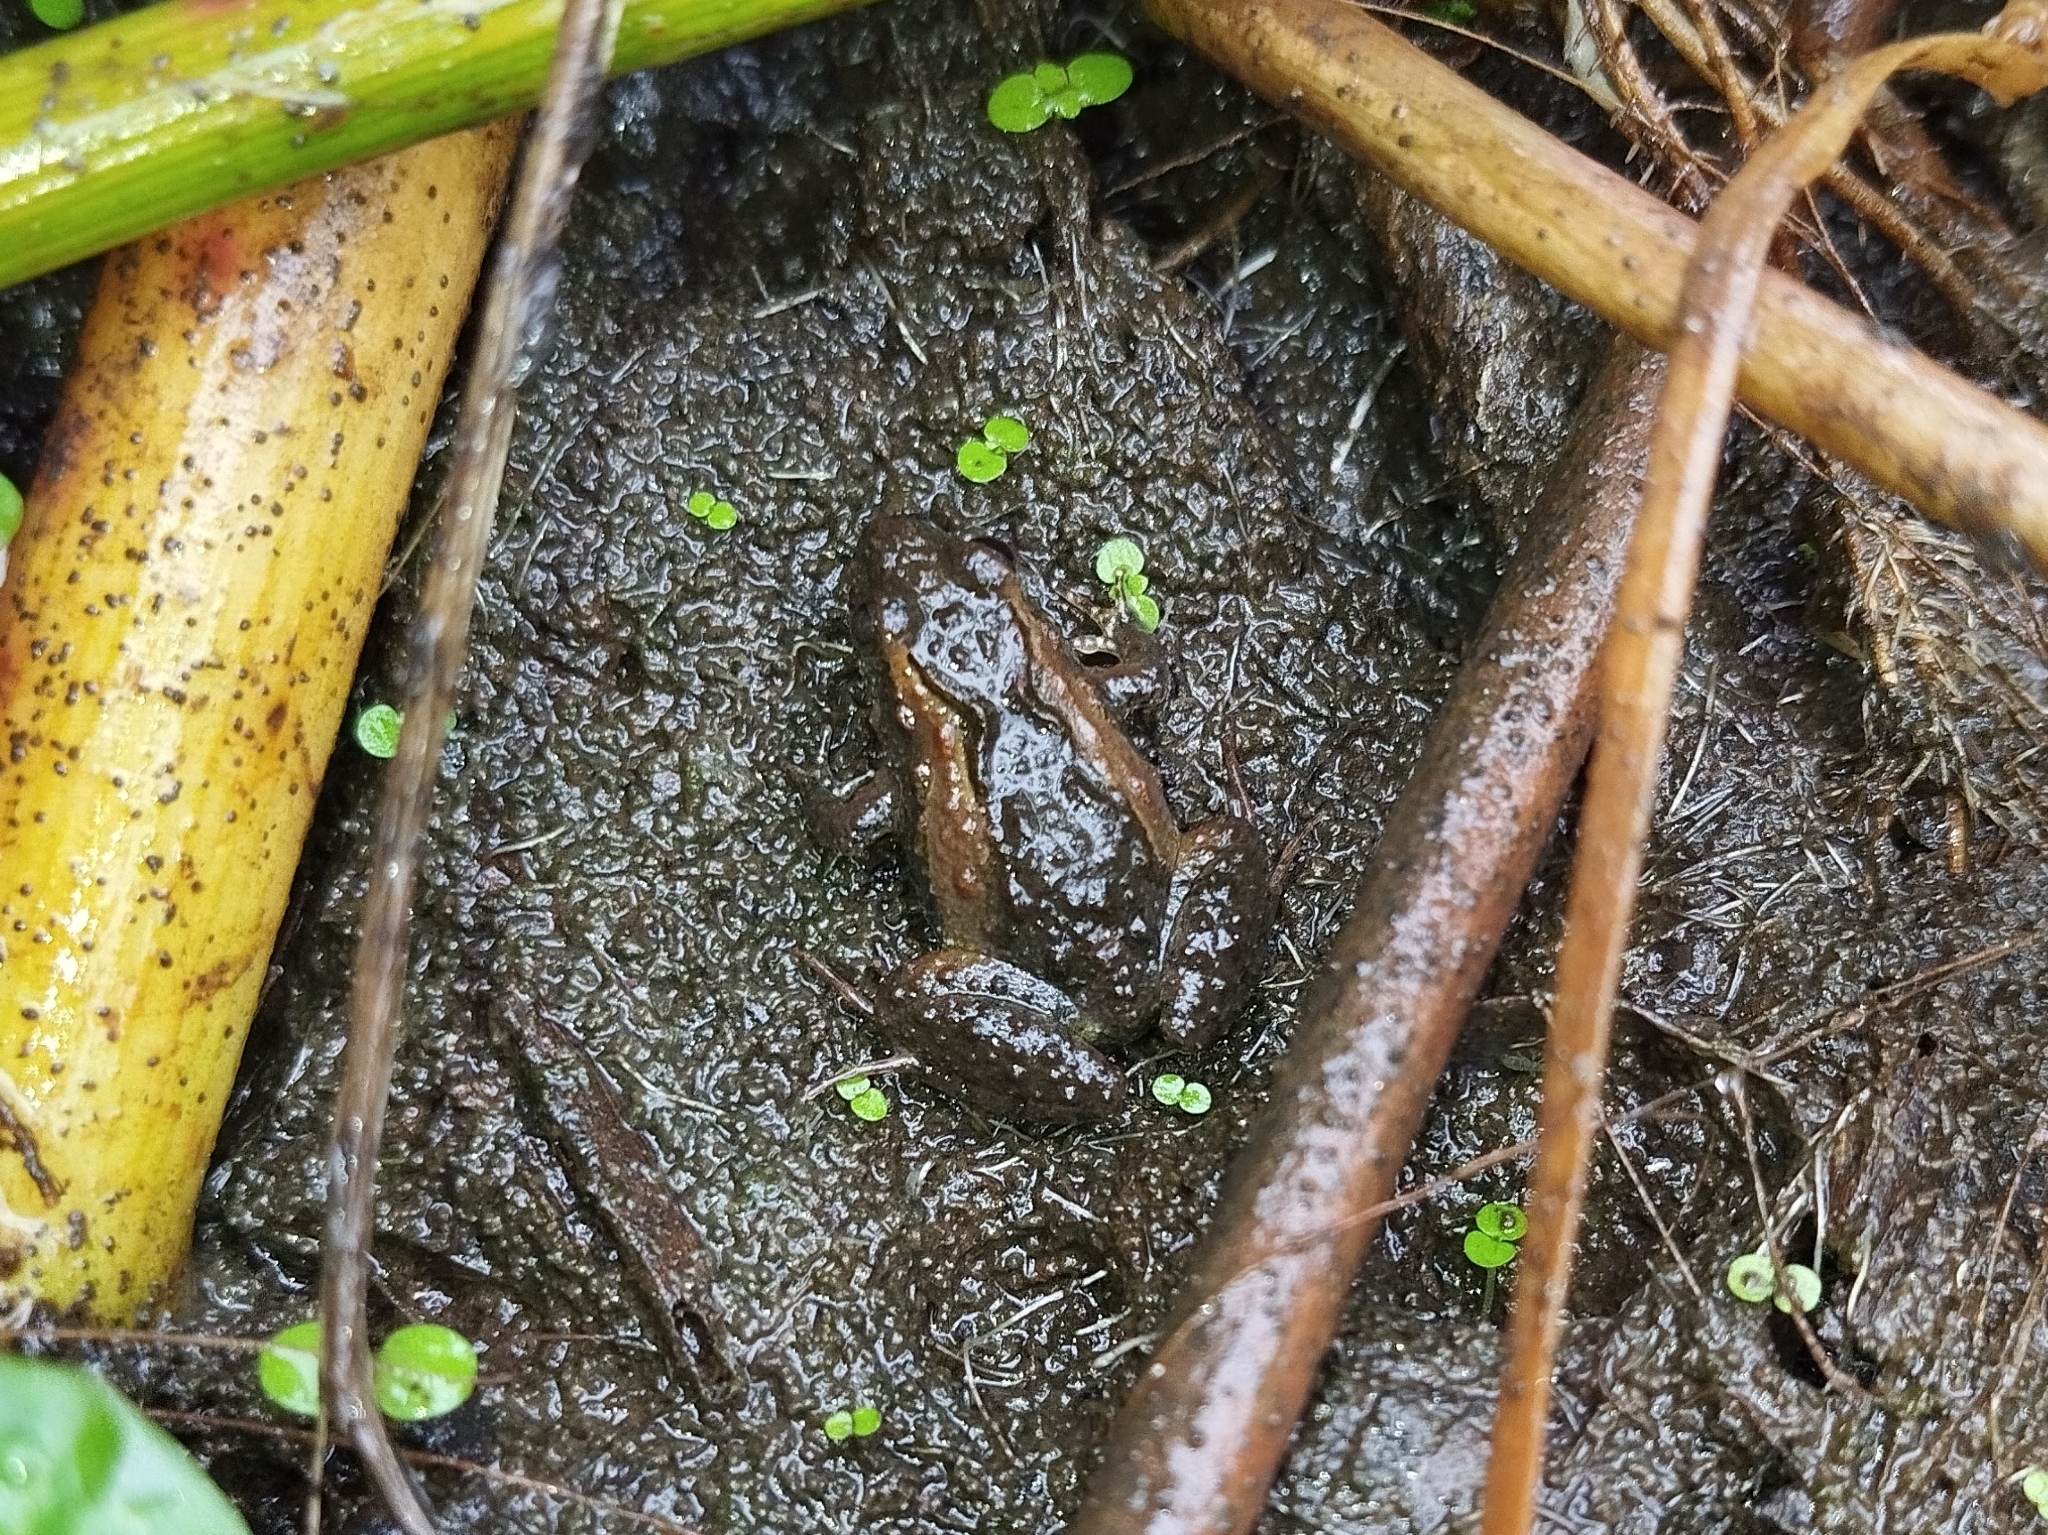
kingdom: Animalia
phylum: Chordata
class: Amphibia
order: Anura
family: Leptodactylidae
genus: Pseudopaludicola
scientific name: Pseudopaludicola restinga
